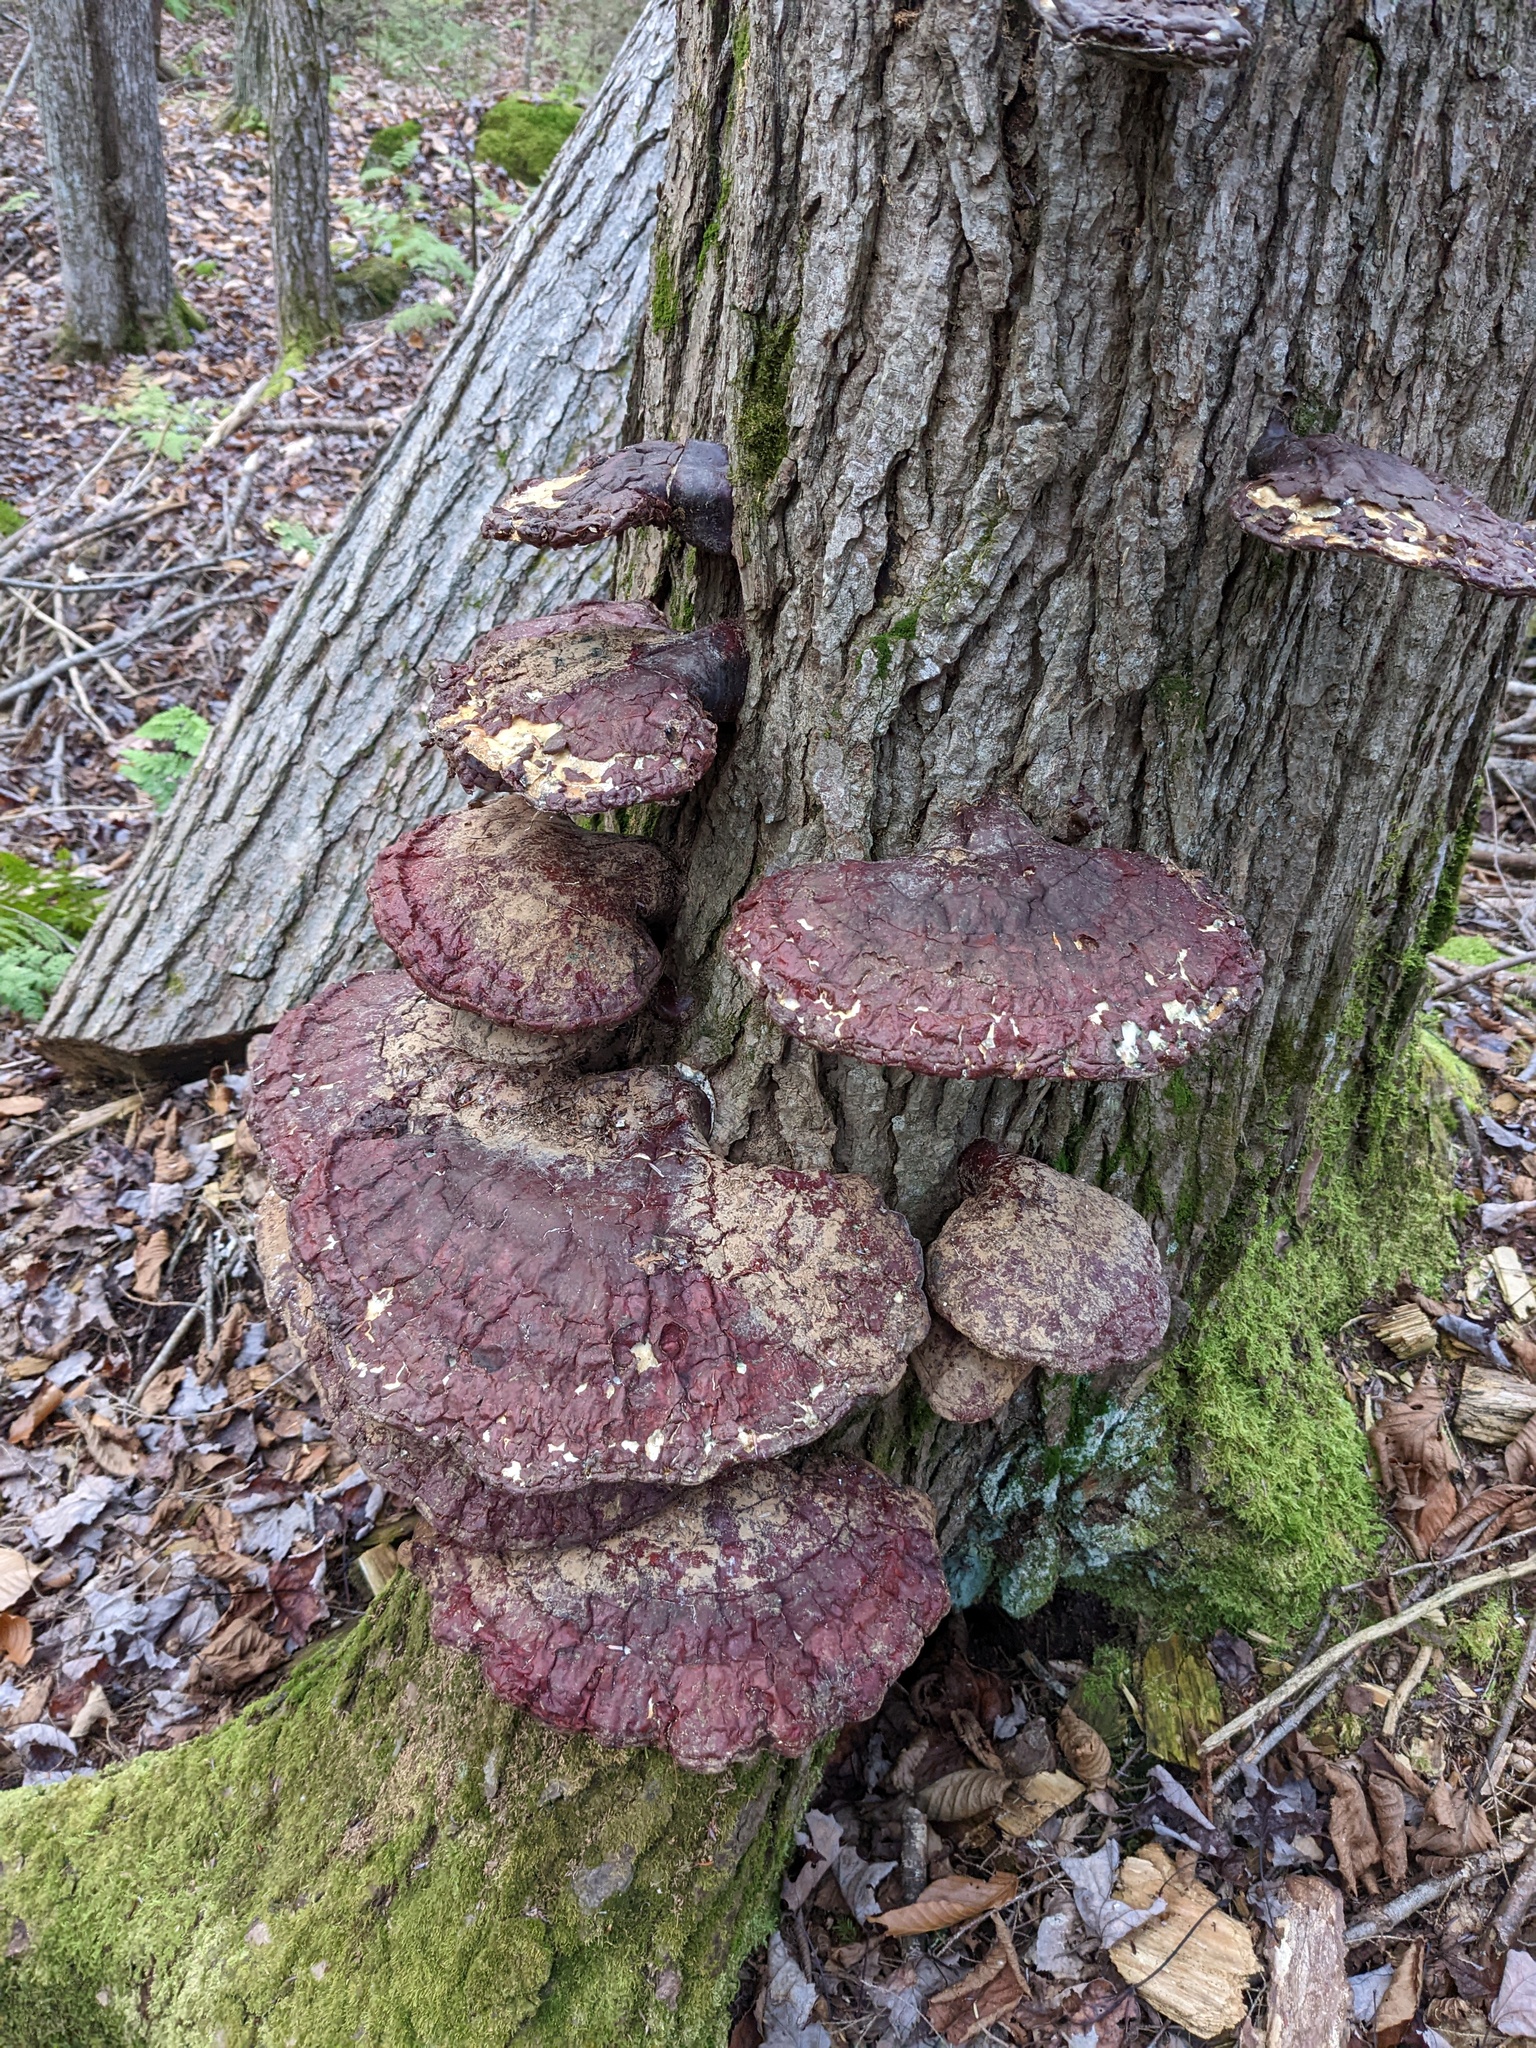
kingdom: Fungi
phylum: Basidiomycota
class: Agaricomycetes
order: Polyporales
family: Polyporaceae
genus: Ganoderma
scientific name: Ganoderma tsugae
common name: Hemlock varnish shelf
